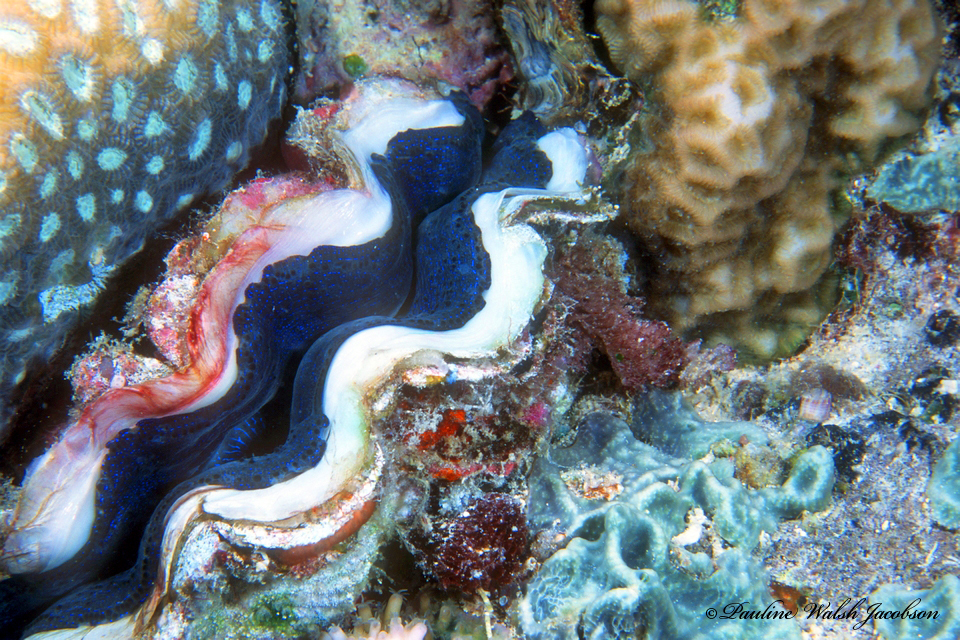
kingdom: Animalia
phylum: Mollusca
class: Bivalvia
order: Cardiida
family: Cardiidae
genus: Tridacna
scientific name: Tridacna crocea
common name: Boring clam
